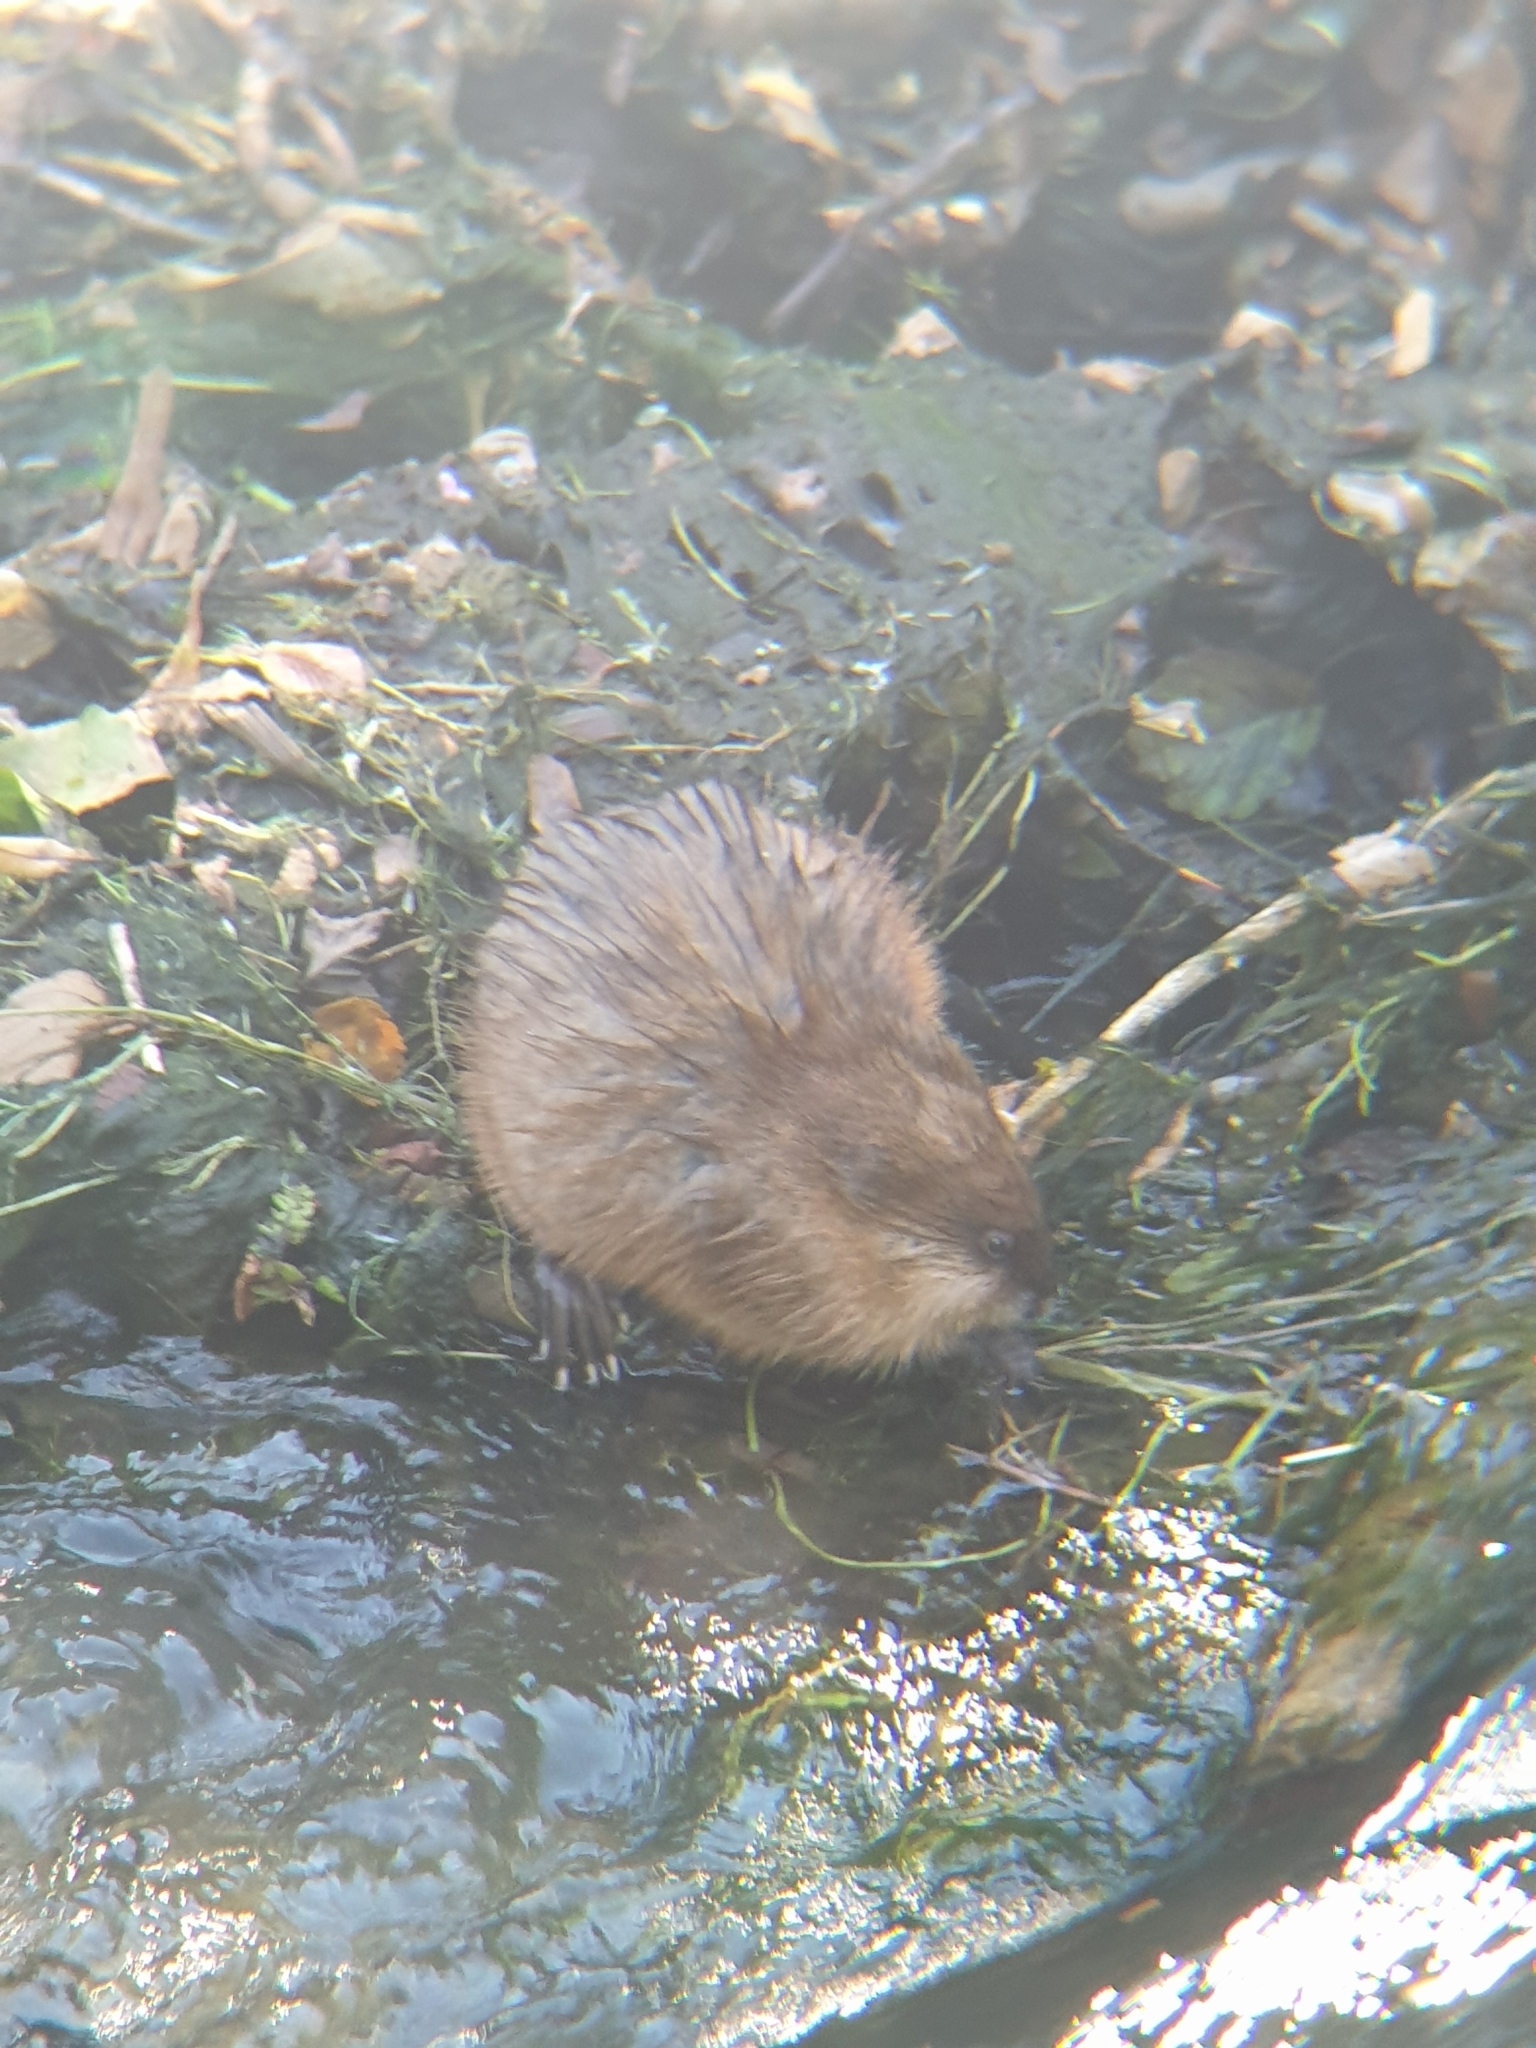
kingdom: Animalia
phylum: Chordata
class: Mammalia
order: Rodentia
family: Cricetidae
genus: Ondatra
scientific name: Ondatra zibethicus
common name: Muskrat
